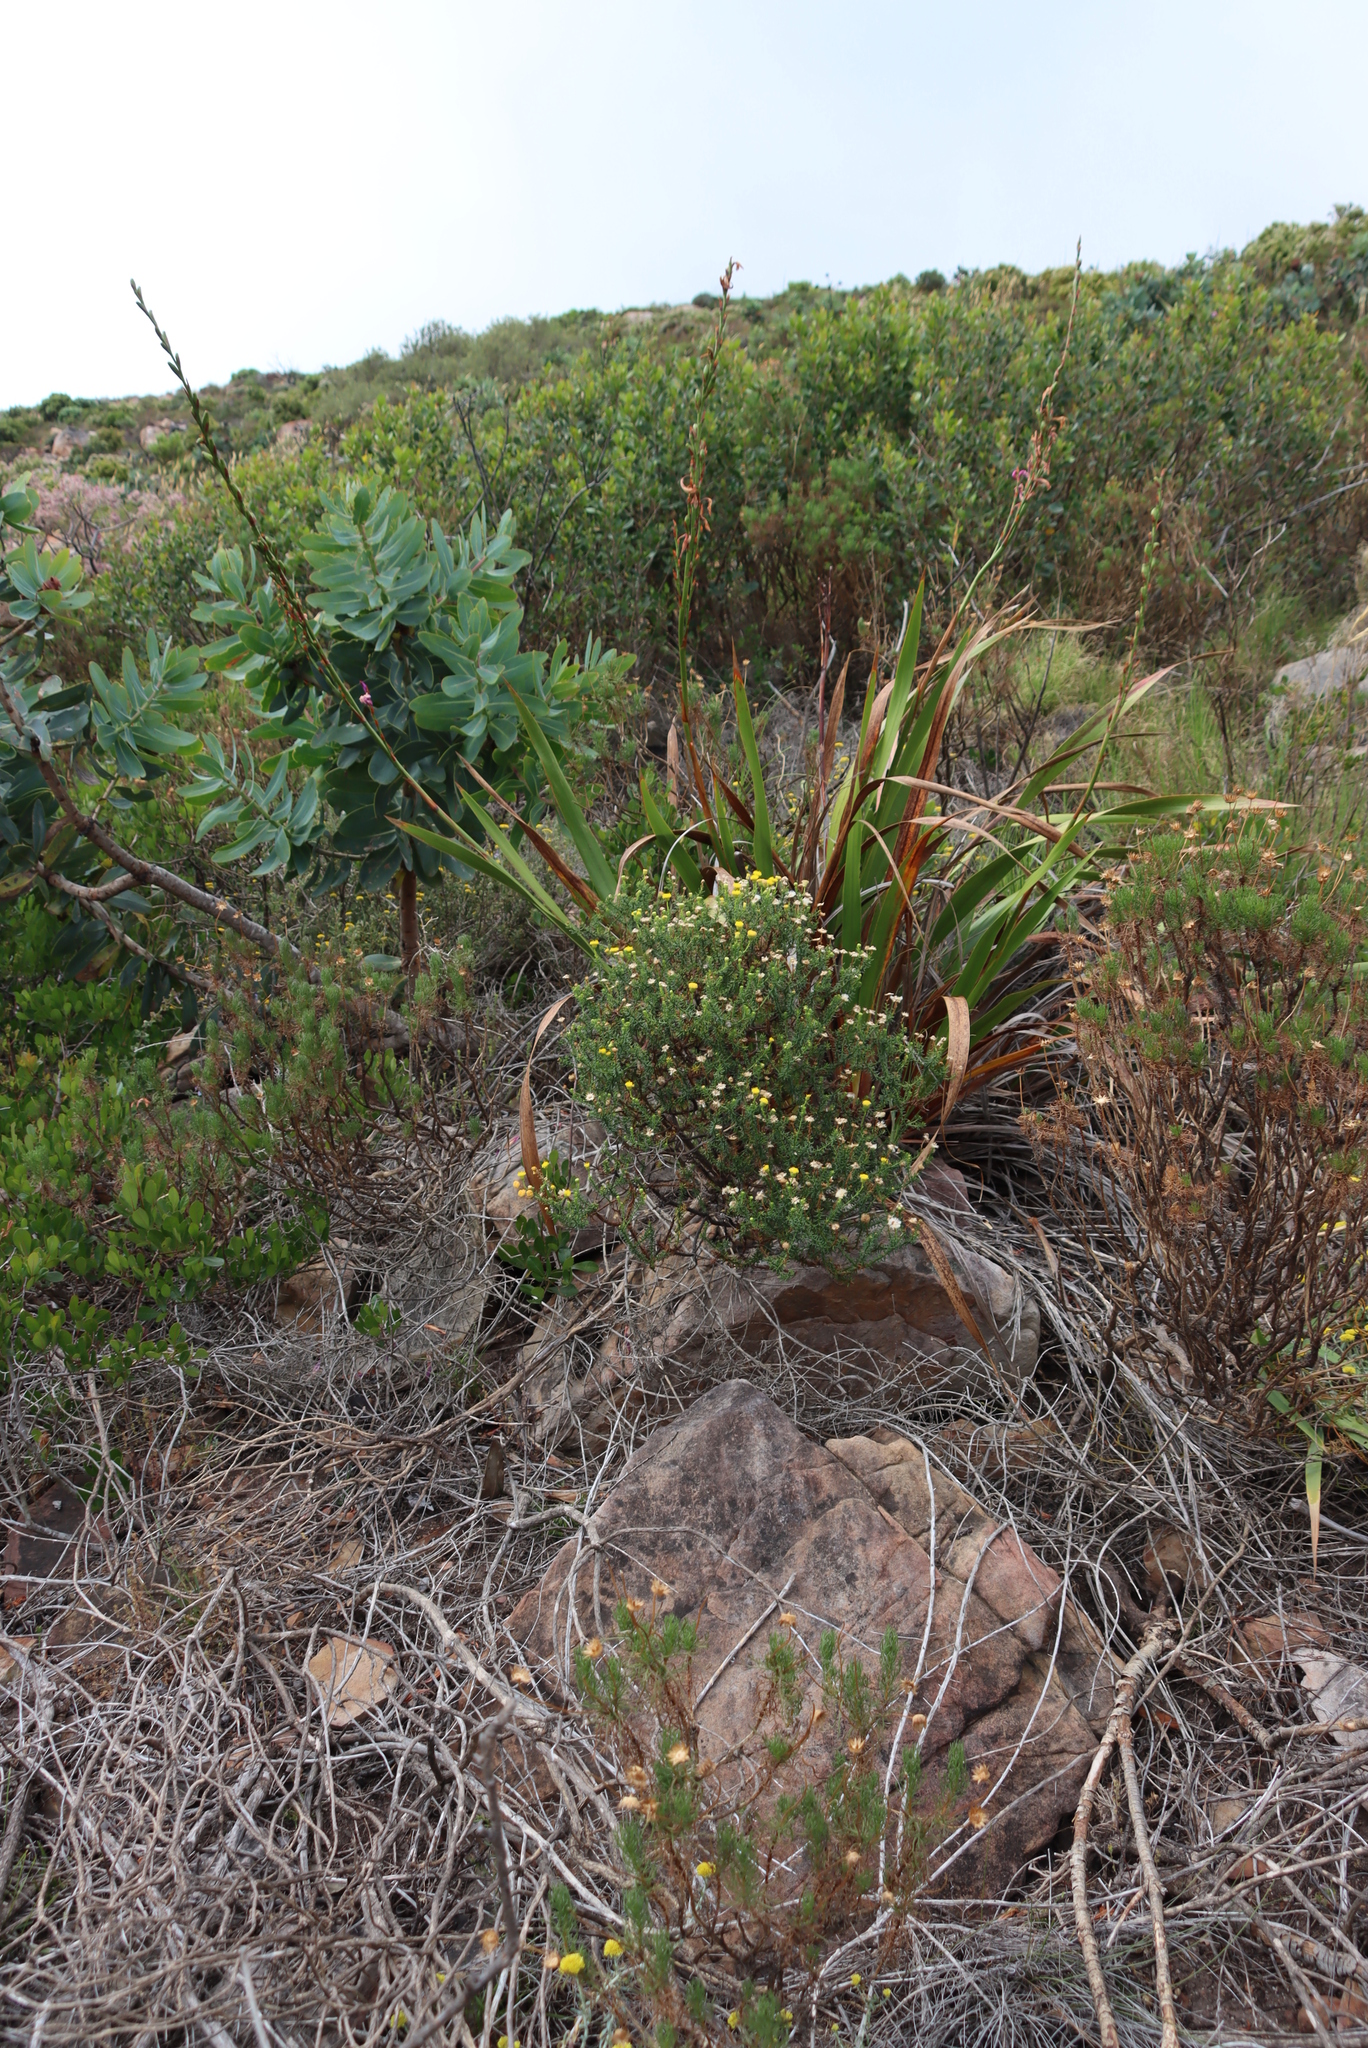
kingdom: Plantae
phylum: Tracheophyta
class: Magnoliopsida
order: Proteales
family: Proteaceae
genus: Protea
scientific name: Protea nitida
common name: Tree protea
